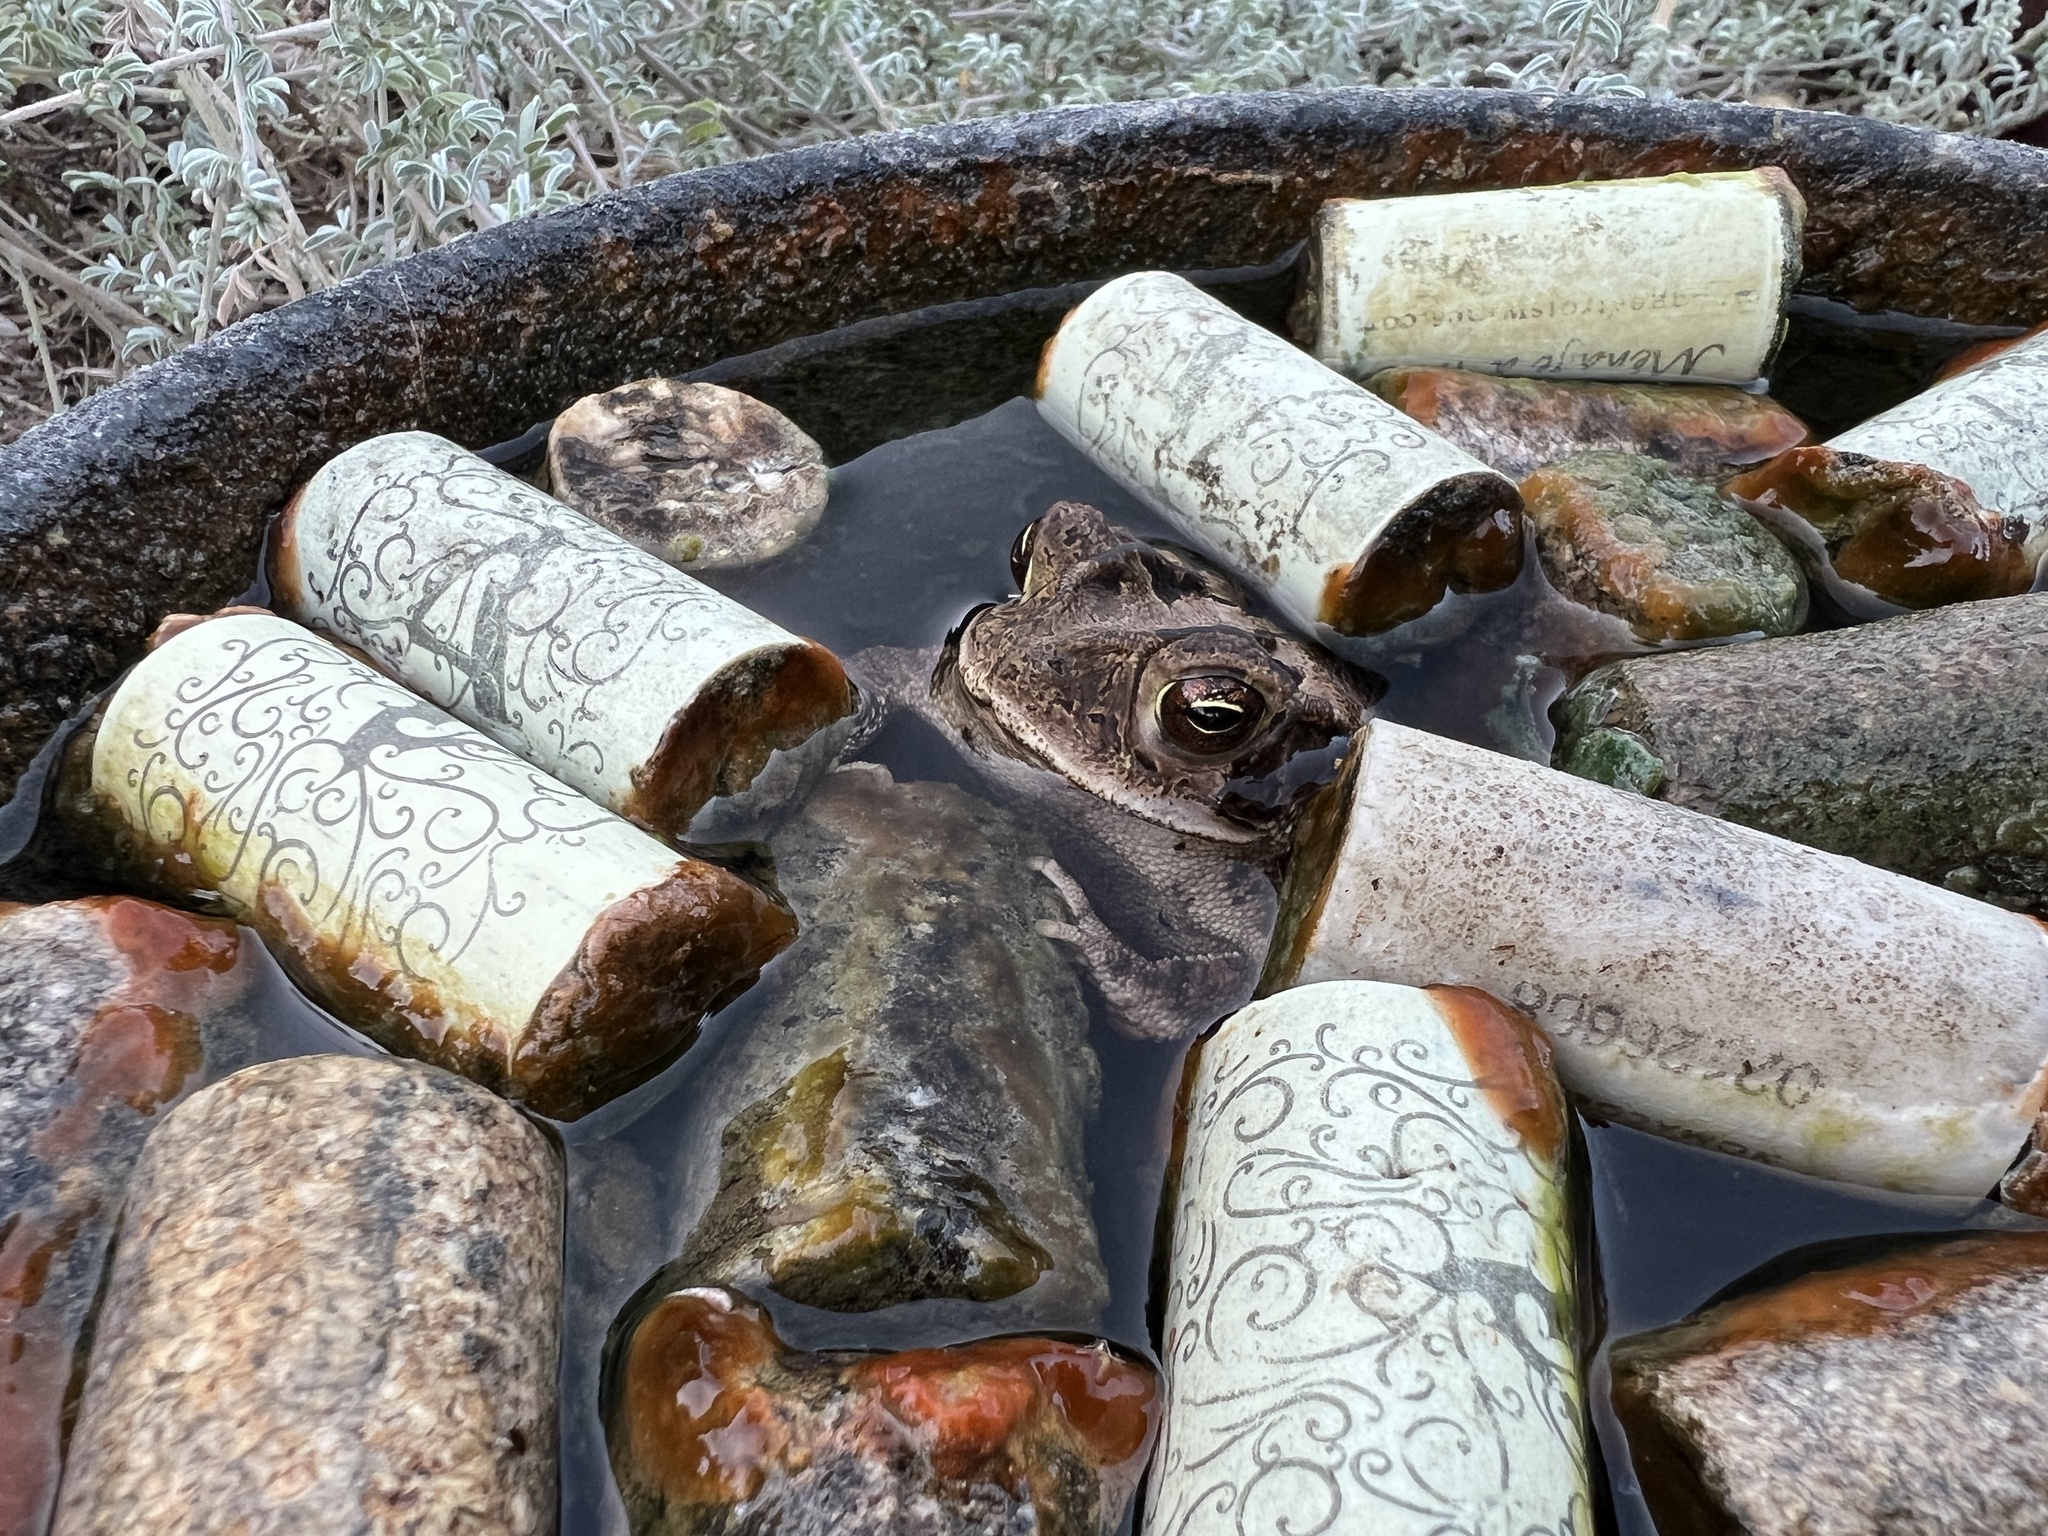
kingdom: Animalia
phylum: Chordata
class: Amphibia
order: Anura
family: Bufonidae
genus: Incilius
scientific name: Incilius nebulifer
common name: Gulf coast toad
